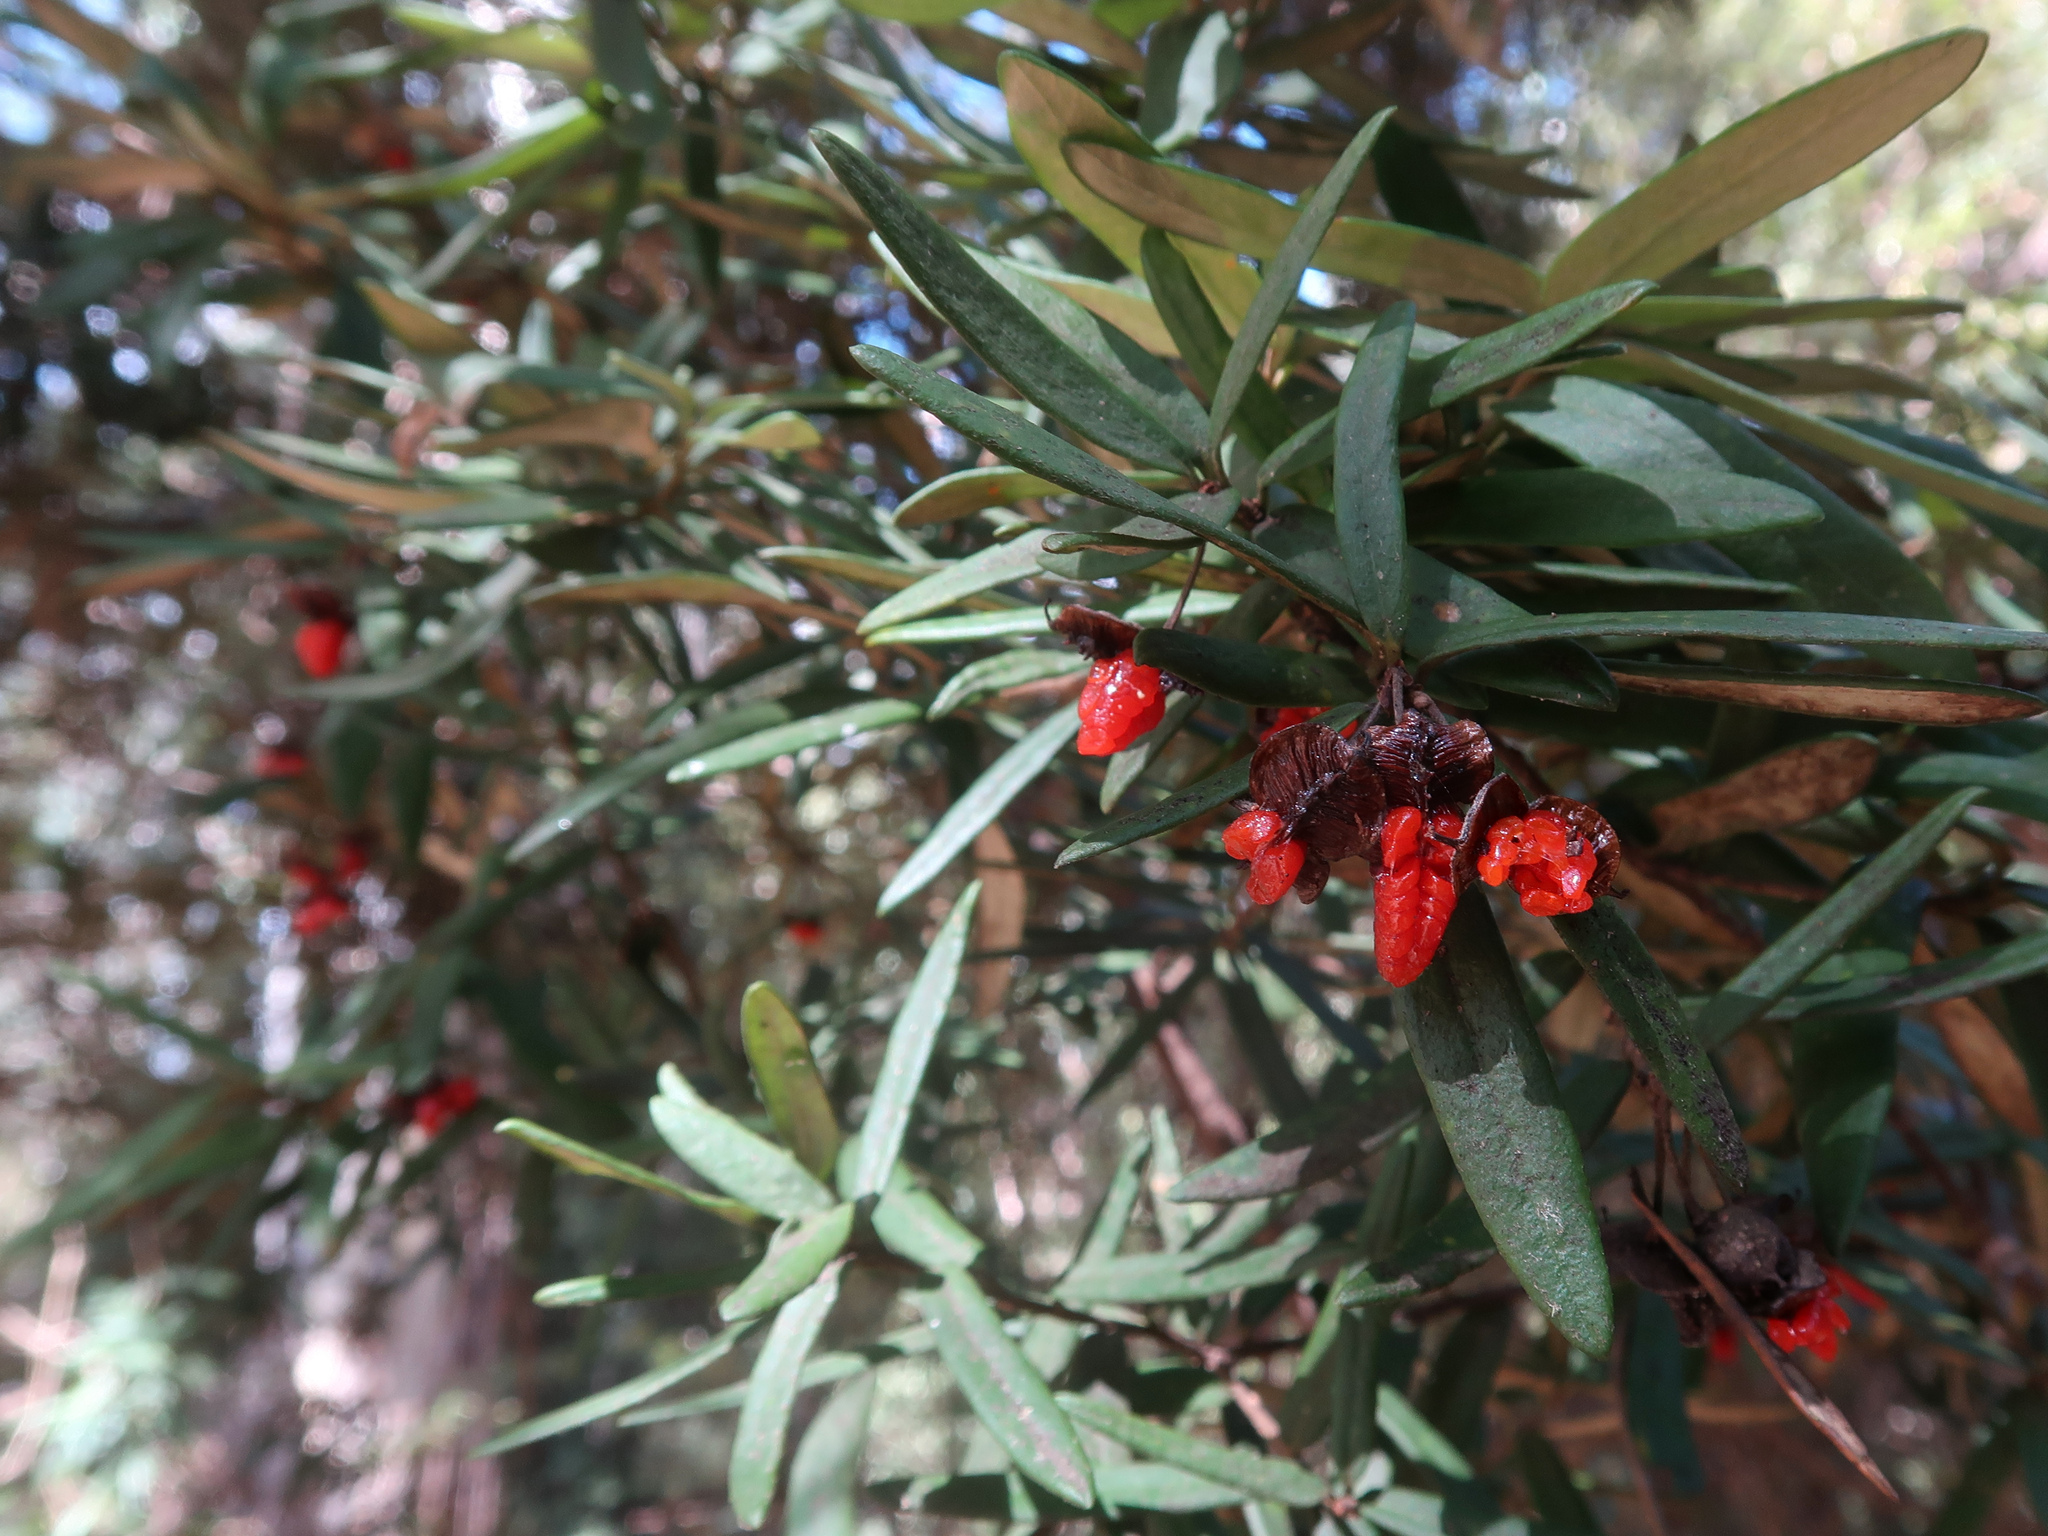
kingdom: Plantae
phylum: Tracheophyta
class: Magnoliopsida
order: Apiales
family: Pittosporaceae
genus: Pittosporum
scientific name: Pittosporum bicolor
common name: Tallowwood
